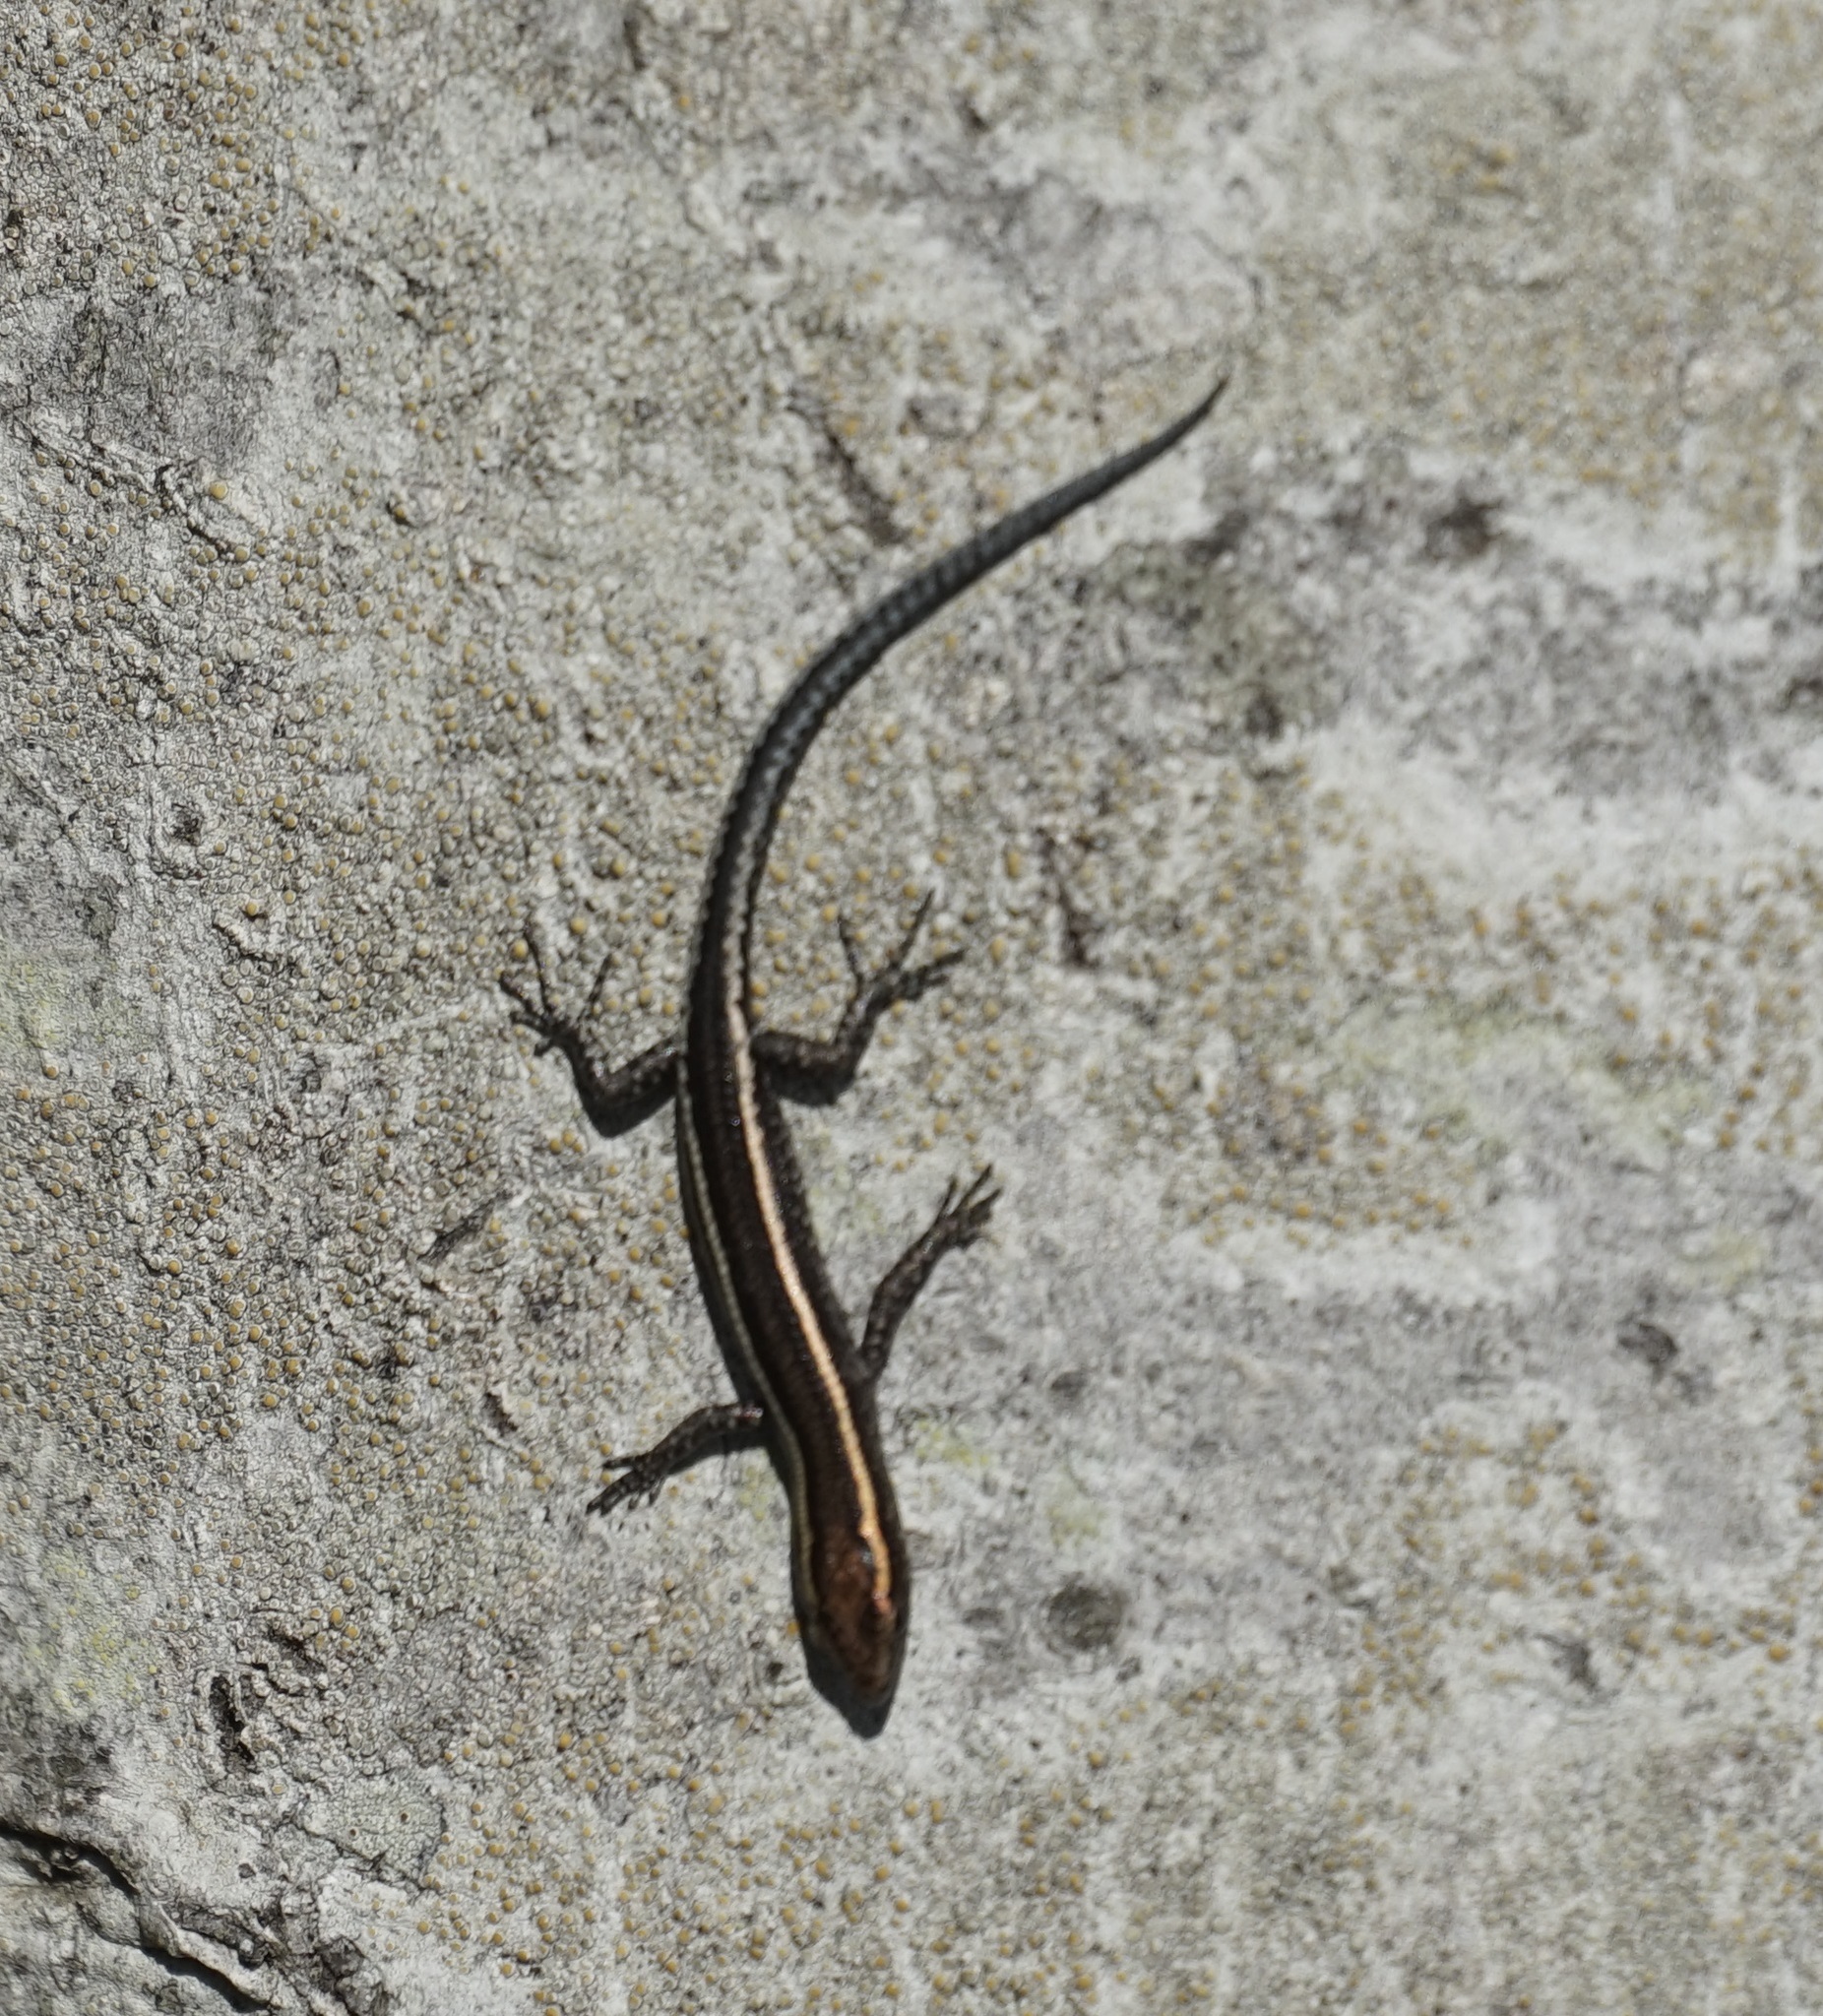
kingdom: Animalia
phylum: Chordata
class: Squamata
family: Scincidae
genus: Cryptoblepharus
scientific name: Cryptoblepharus pulcher
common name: Elegant snake-eyed skink
